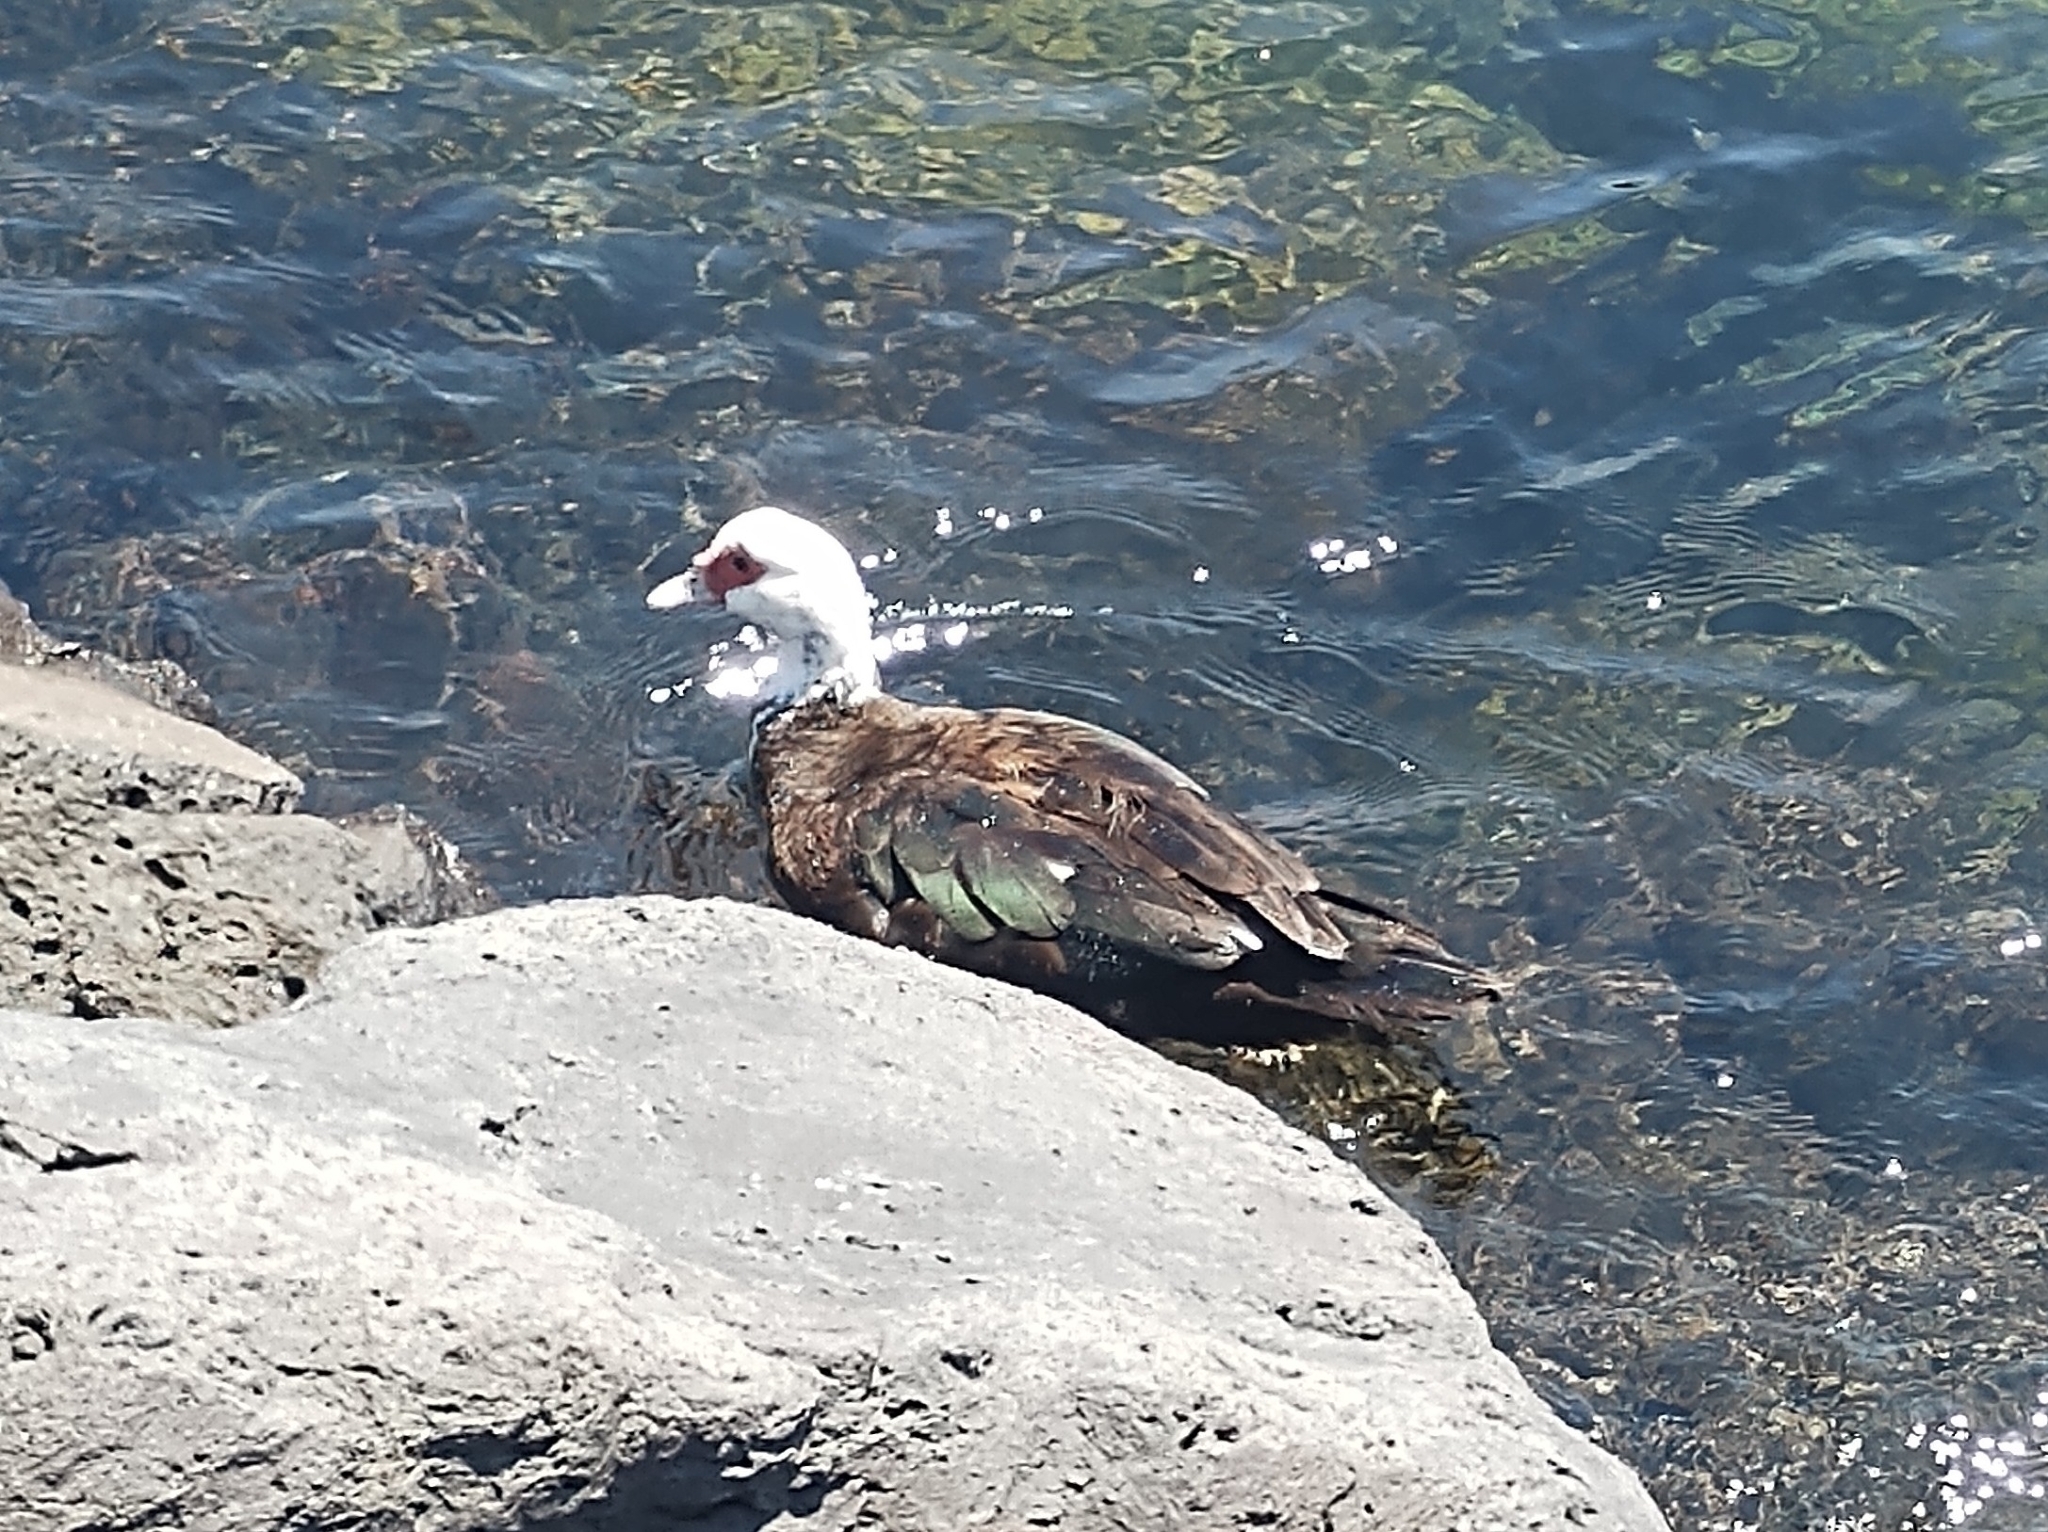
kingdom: Animalia
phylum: Chordata
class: Aves
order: Anseriformes
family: Anatidae
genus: Cairina
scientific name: Cairina moschata
